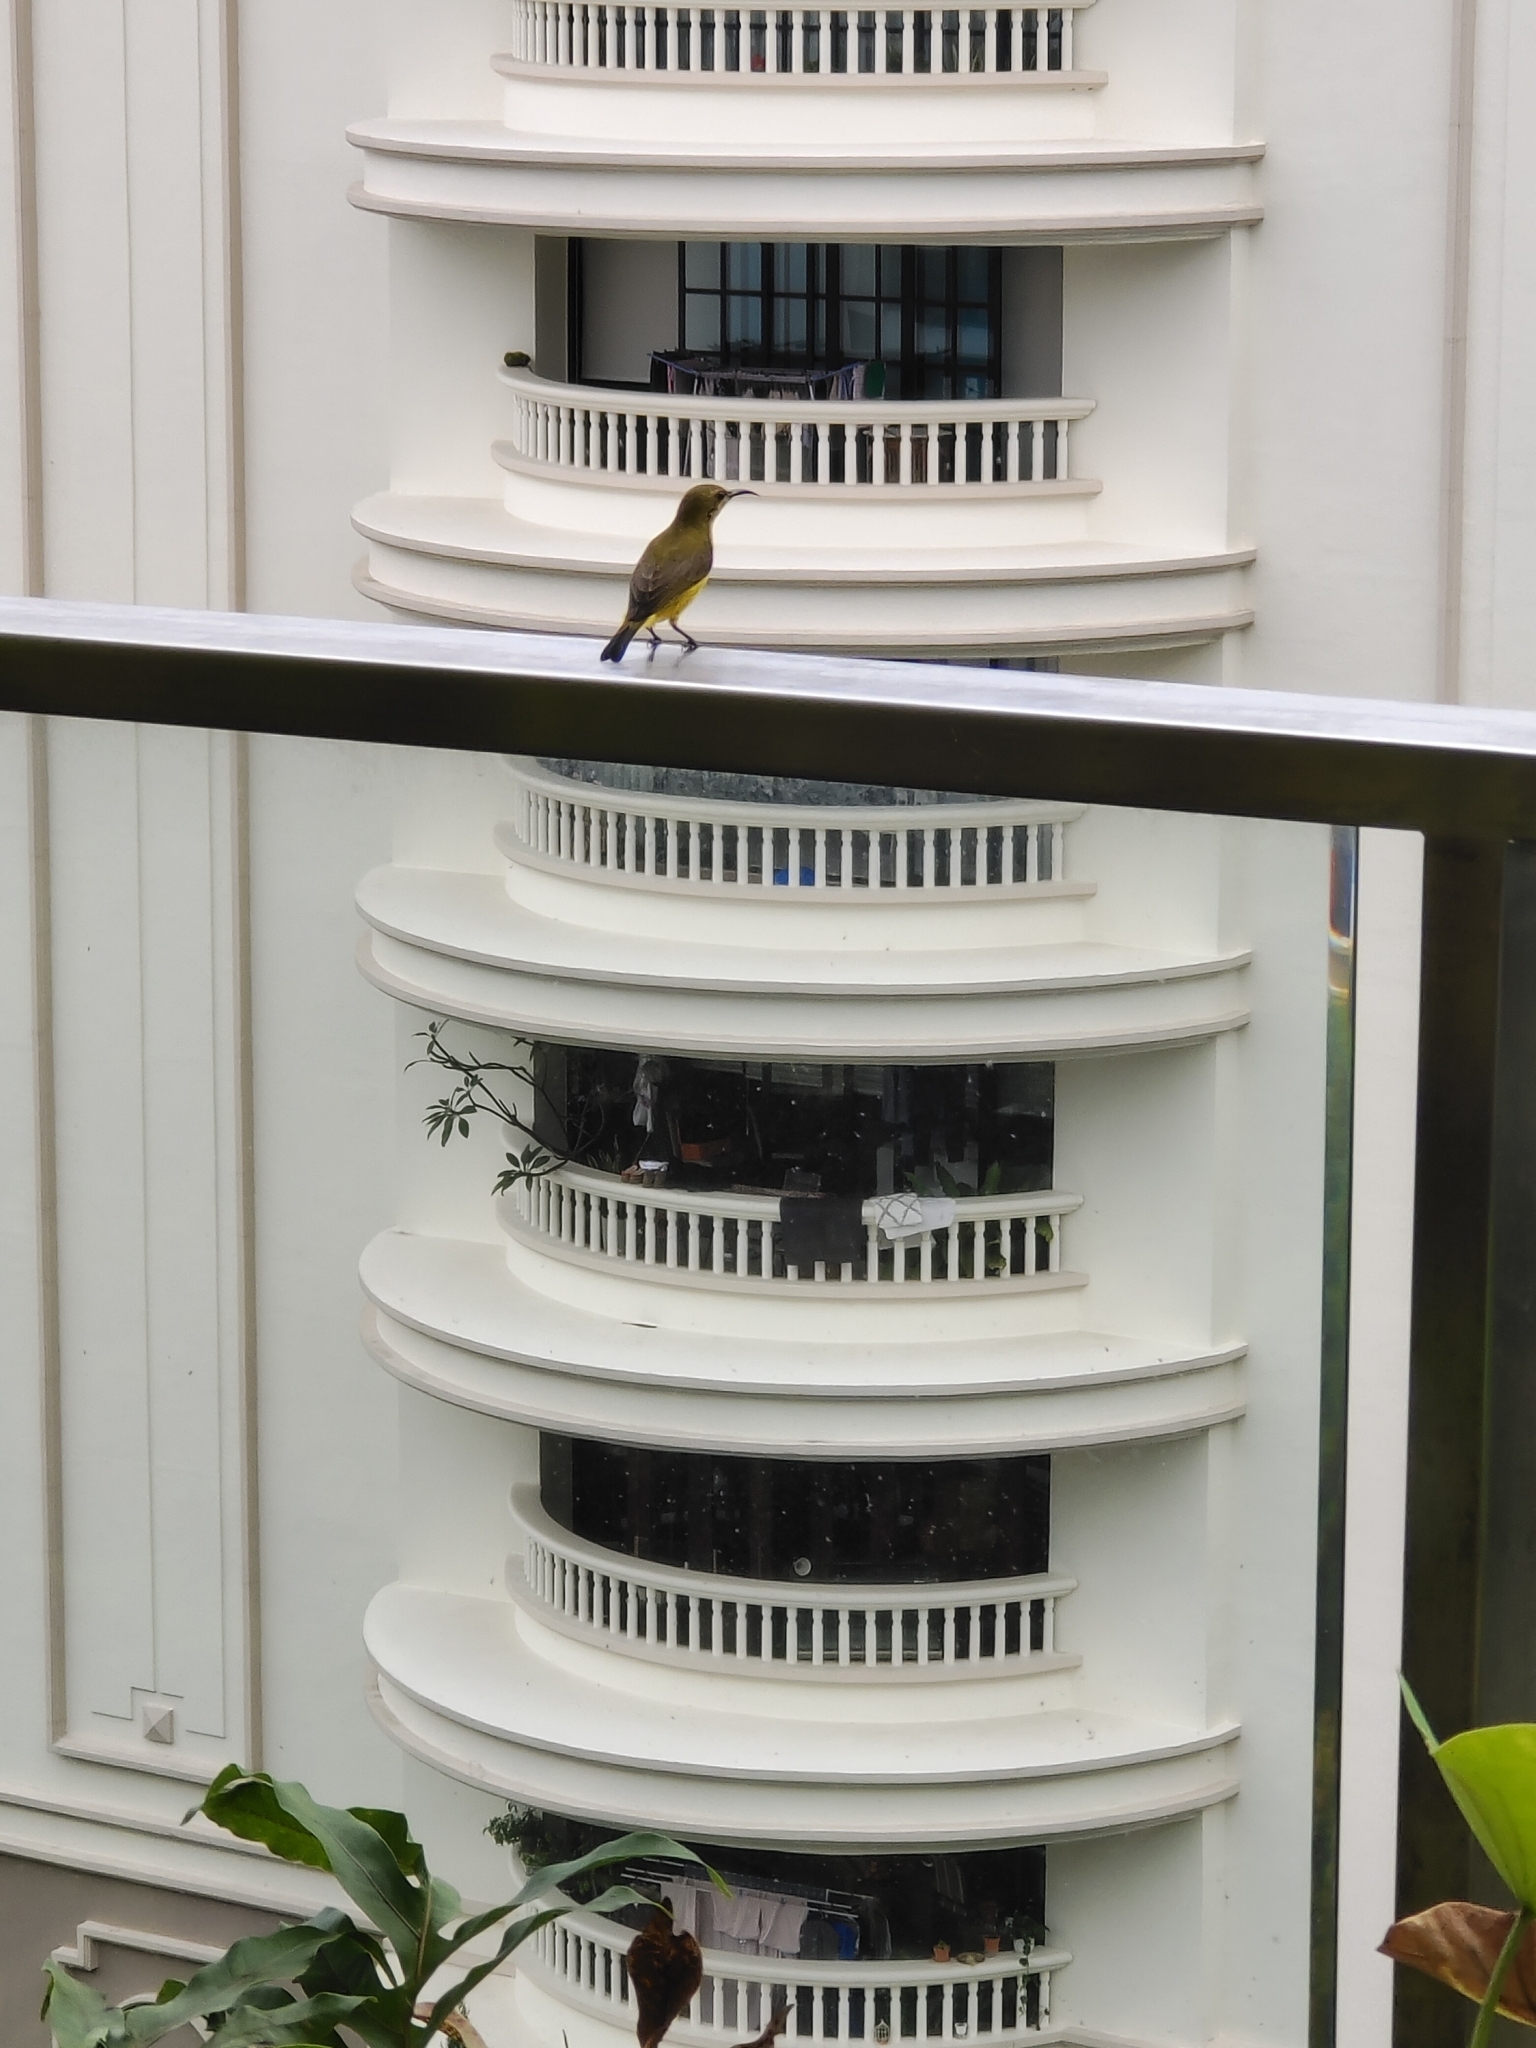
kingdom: Animalia
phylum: Chordata
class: Aves
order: Passeriformes
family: Nectariniidae
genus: Cinnyris
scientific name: Cinnyris
